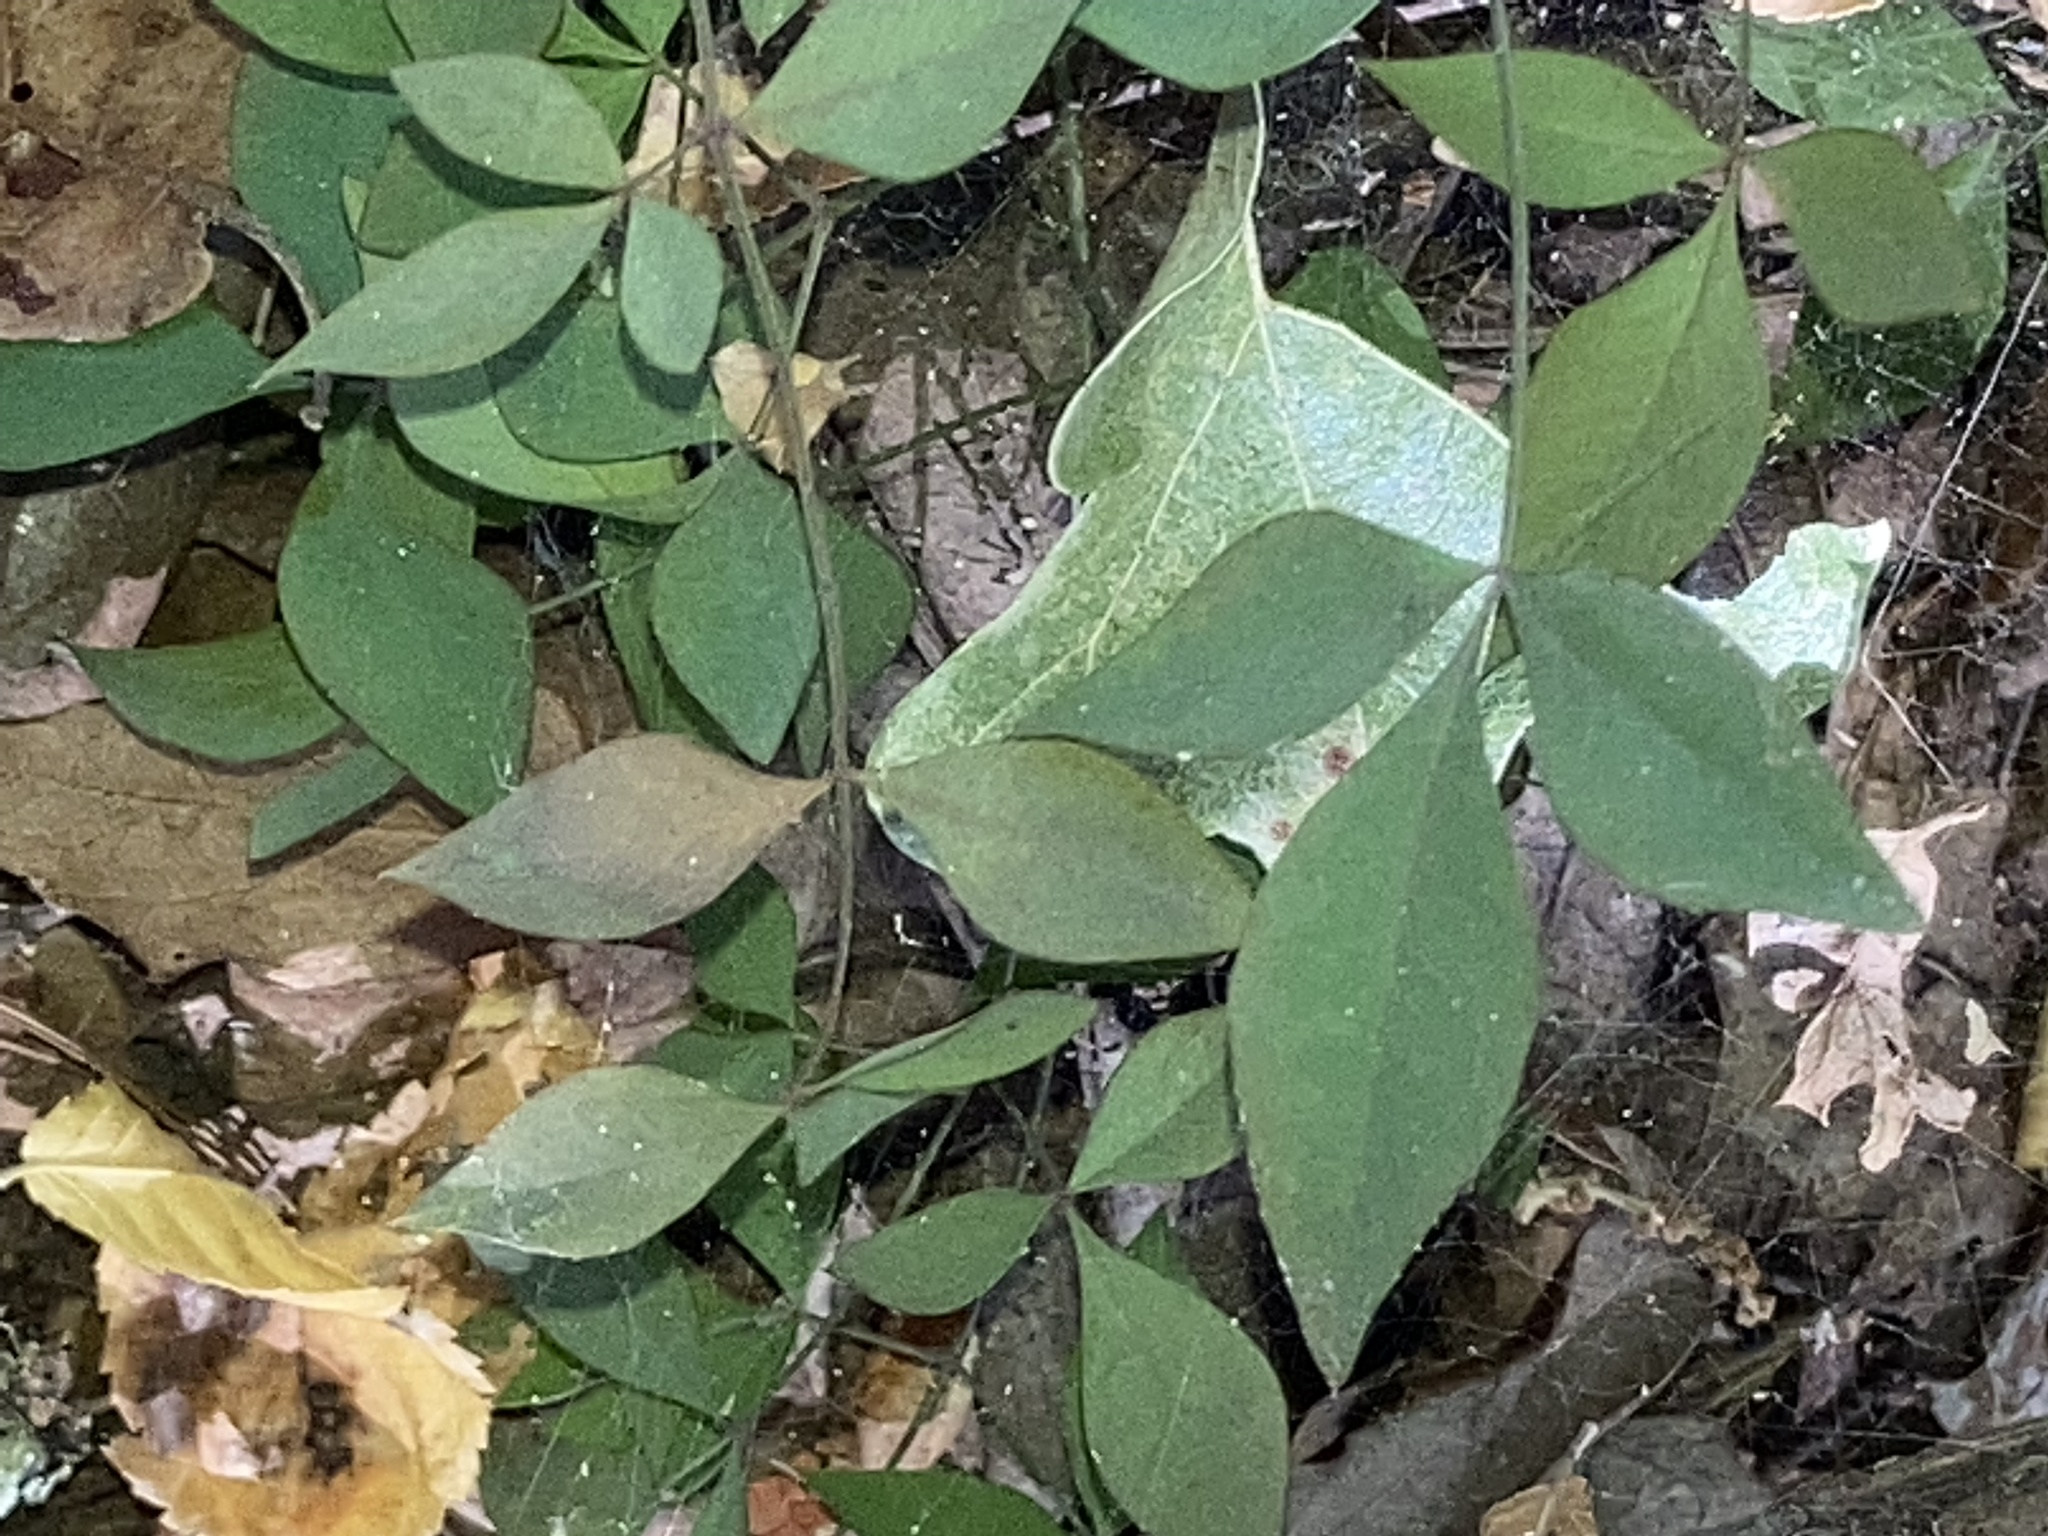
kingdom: Plantae
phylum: Tracheophyta
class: Magnoliopsida
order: Ranunculales
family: Berberidaceae
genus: Nandina
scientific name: Nandina domestica
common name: Sacred bamboo
